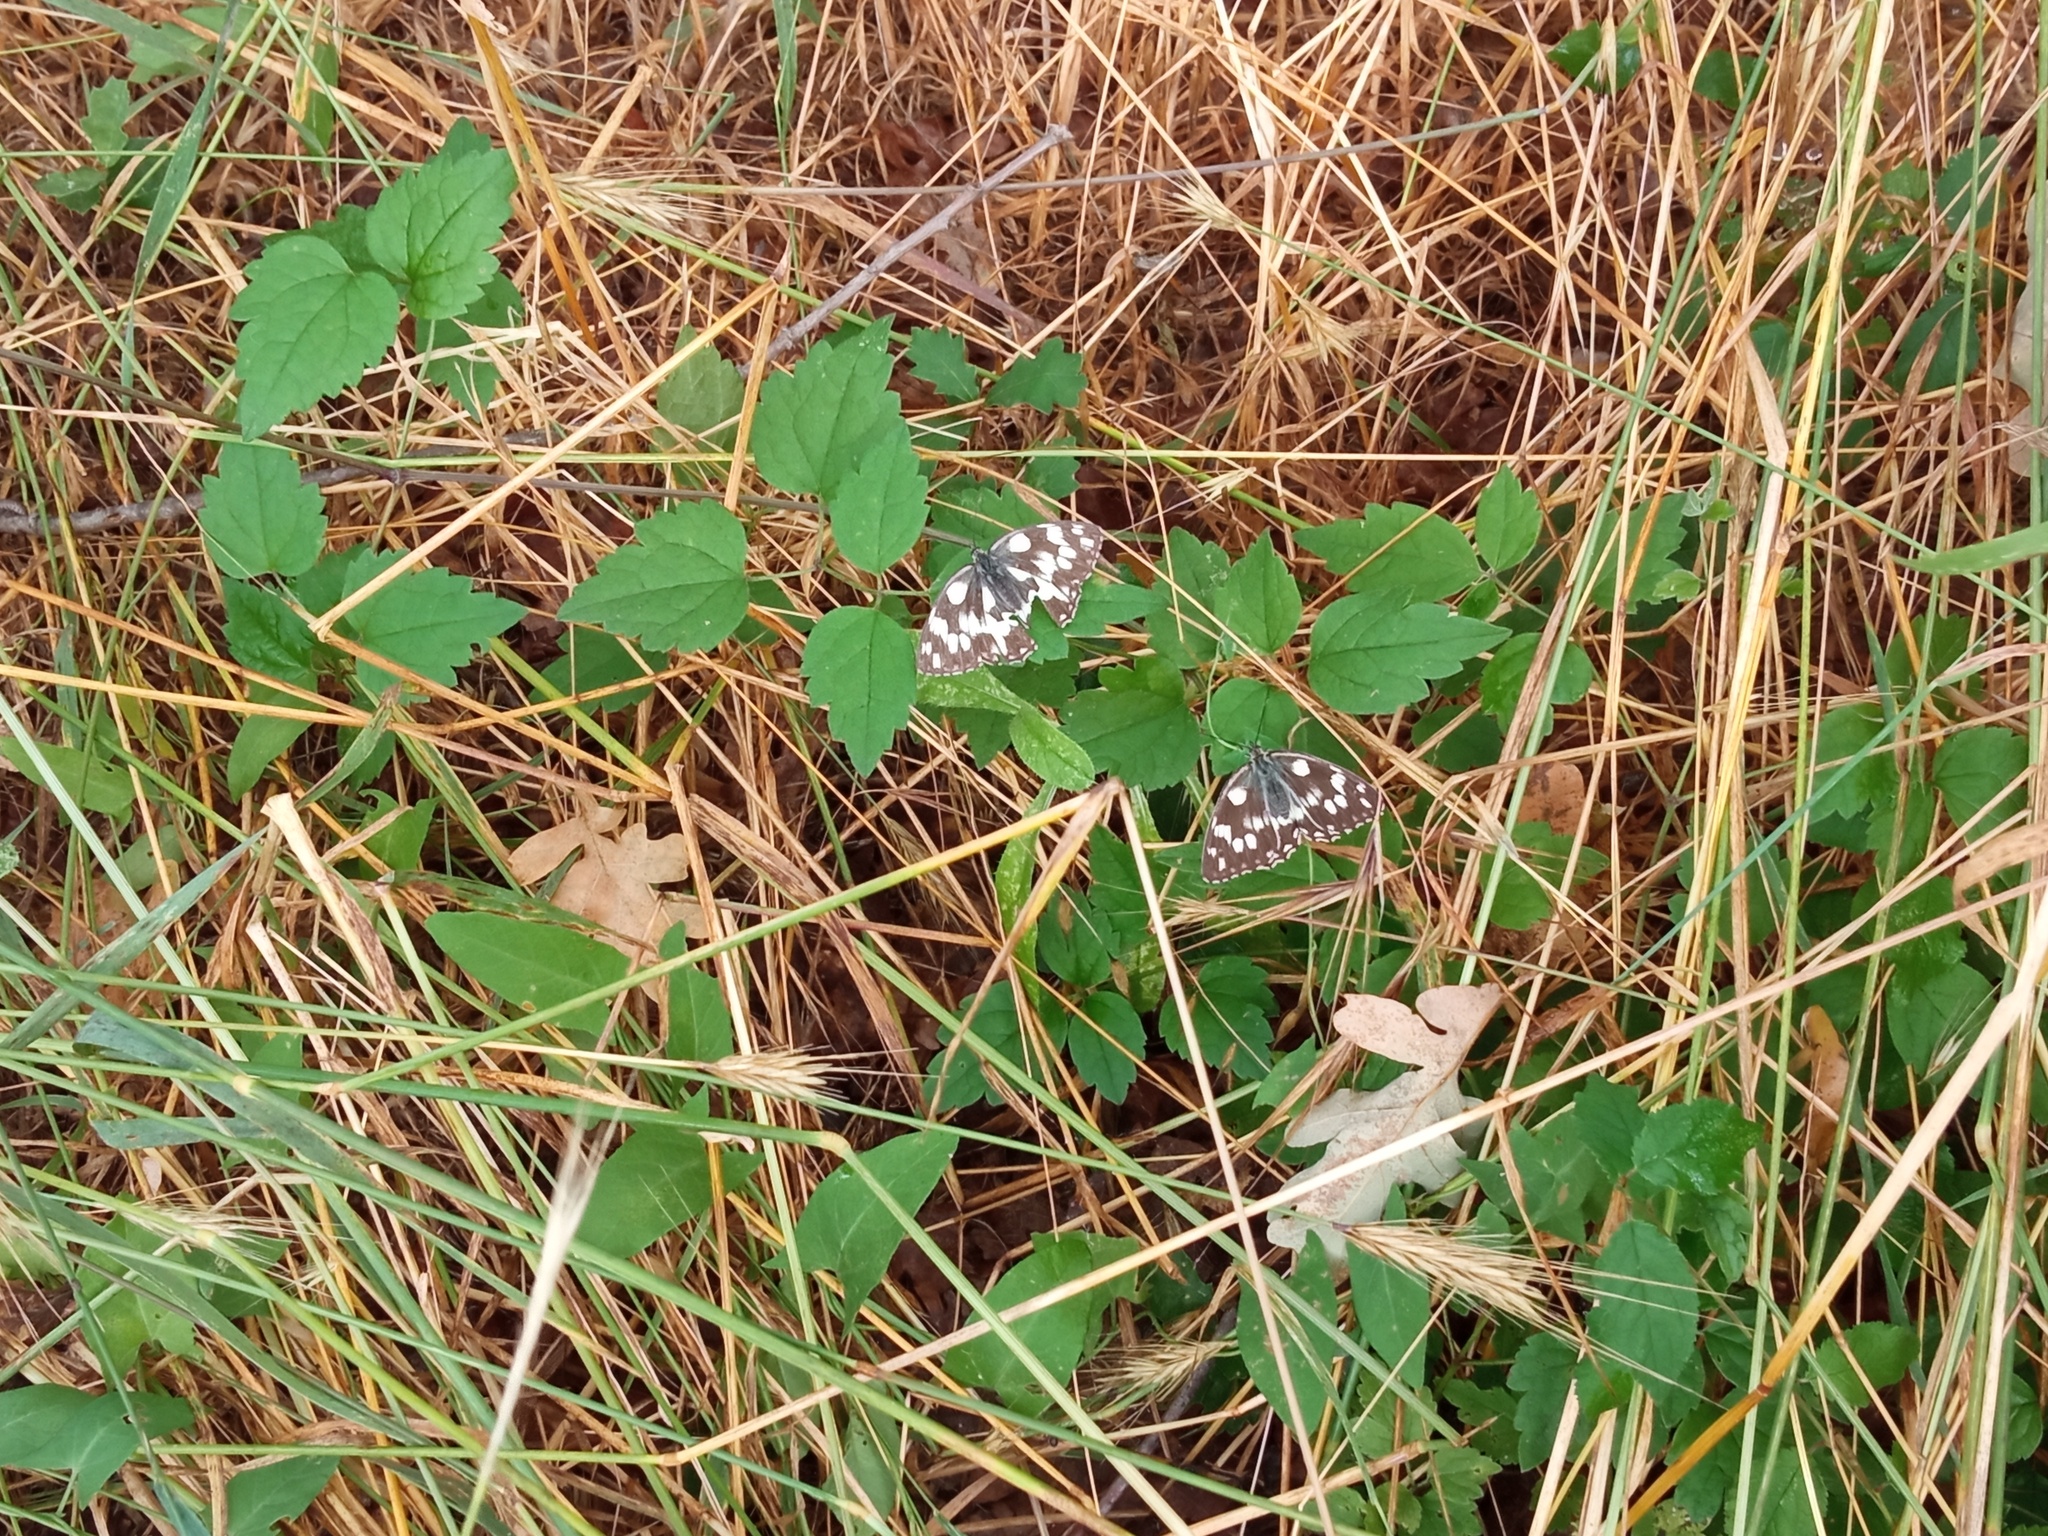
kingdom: Animalia
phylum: Arthropoda
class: Insecta
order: Lepidoptera
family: Nymphalidae
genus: Melanargia
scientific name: Melanargia galathea
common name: Marbled white
